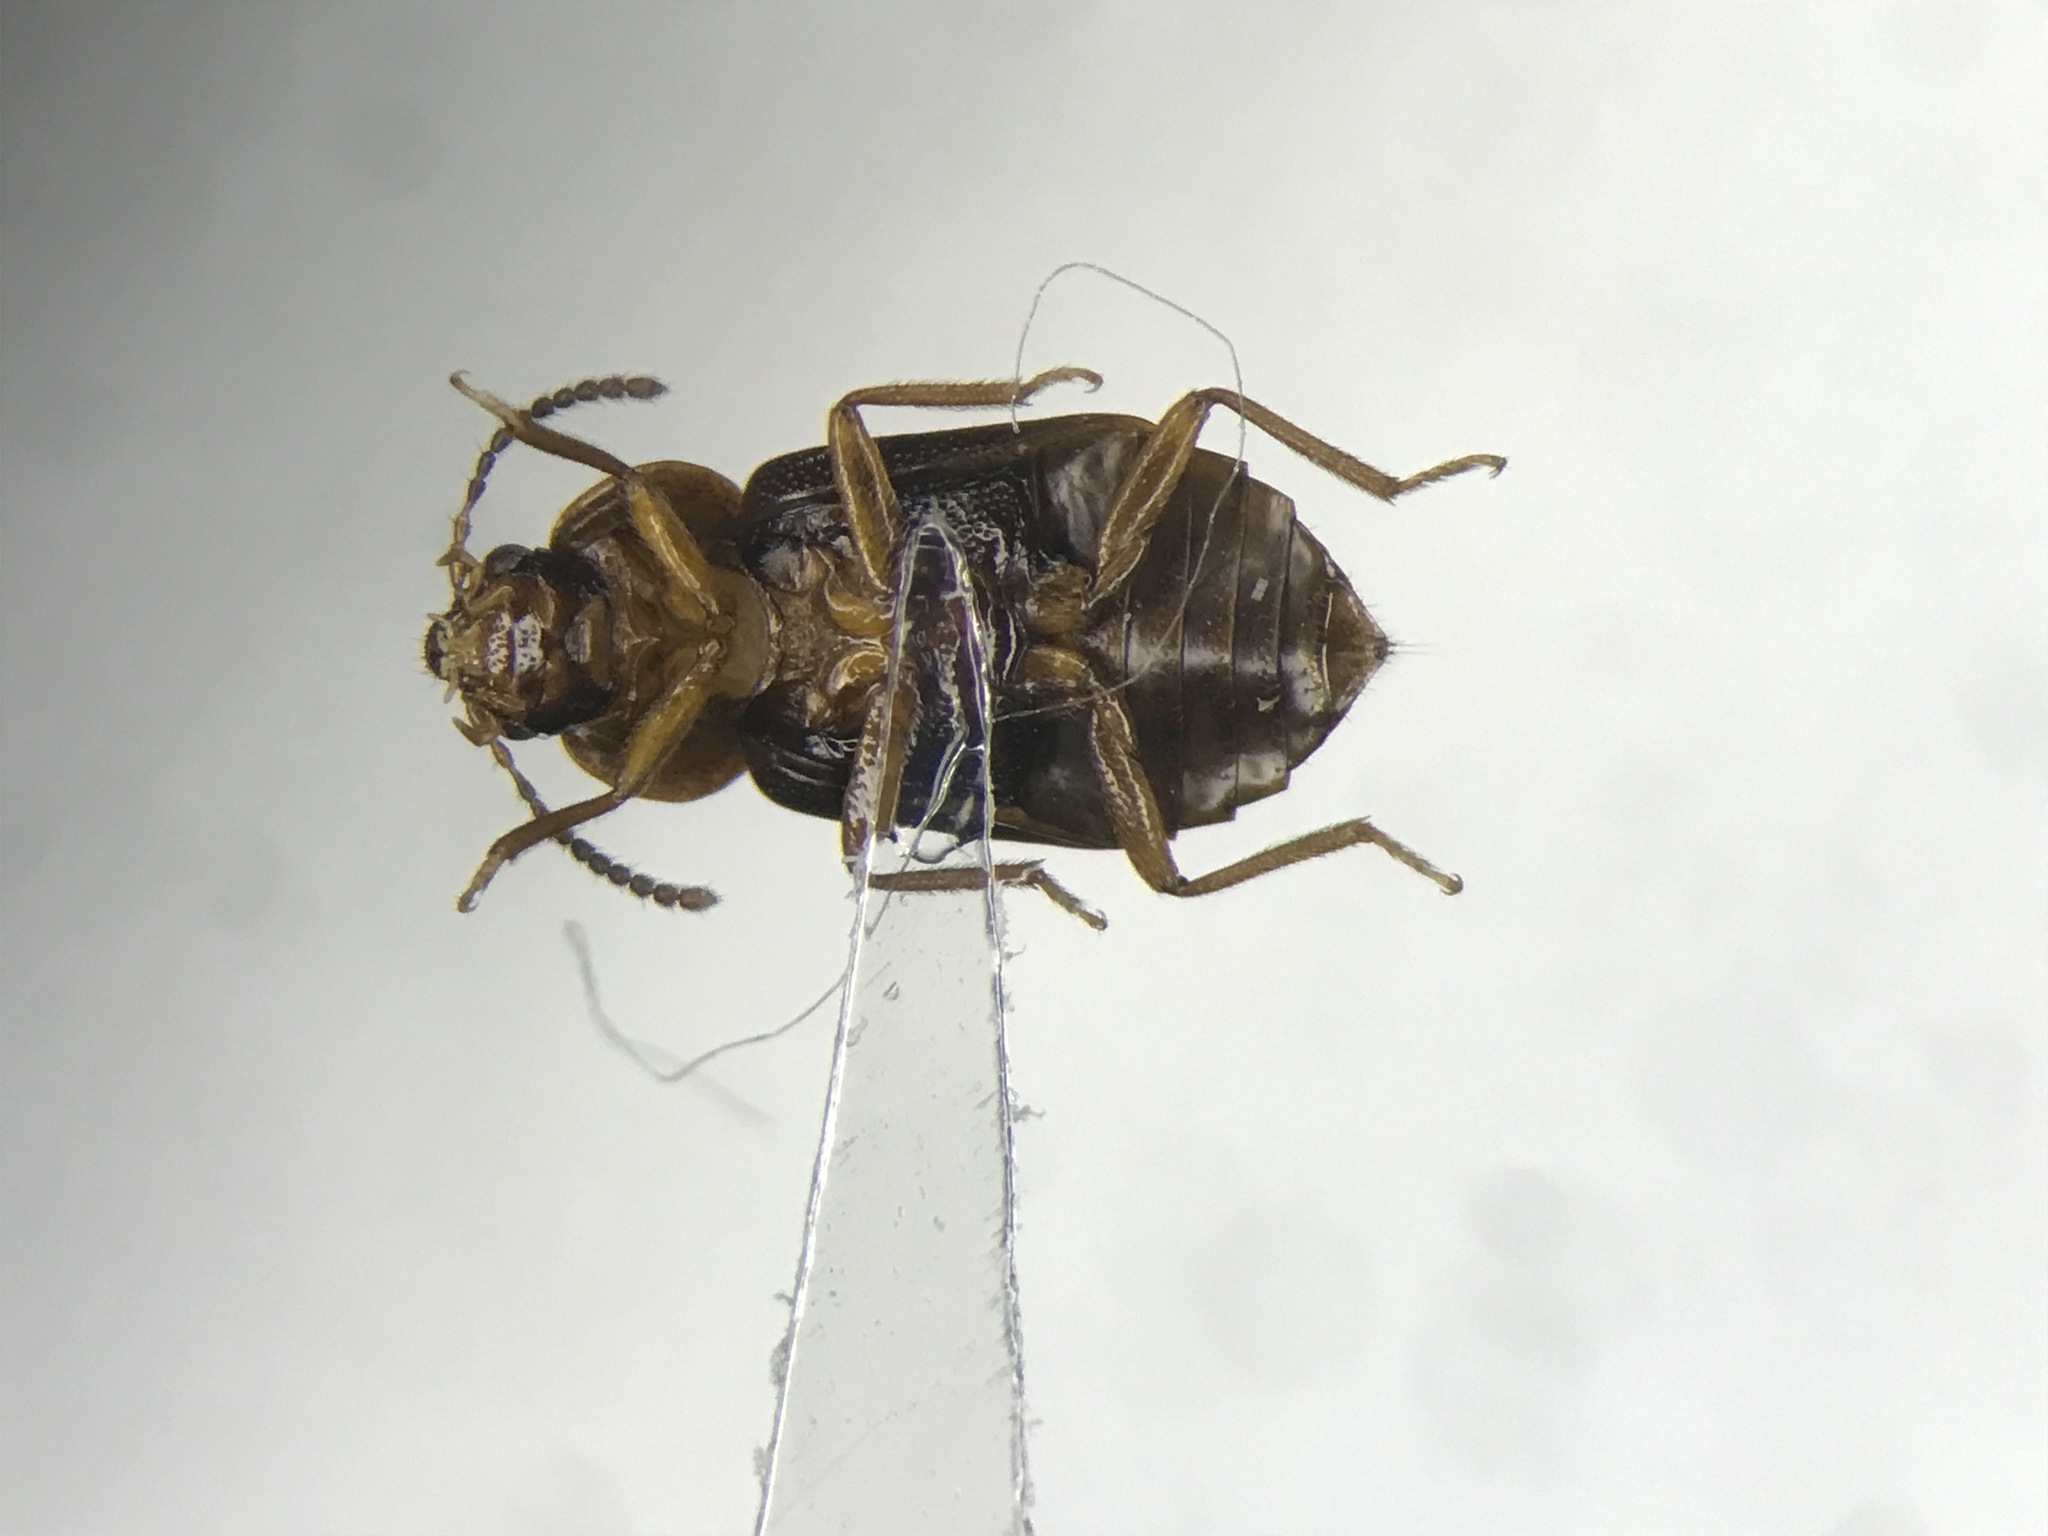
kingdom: Animalia
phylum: Arthropoda
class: Insecta
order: Coleoptera
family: Staphylinidae
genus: Olophrum
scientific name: Olophrum obtectum
